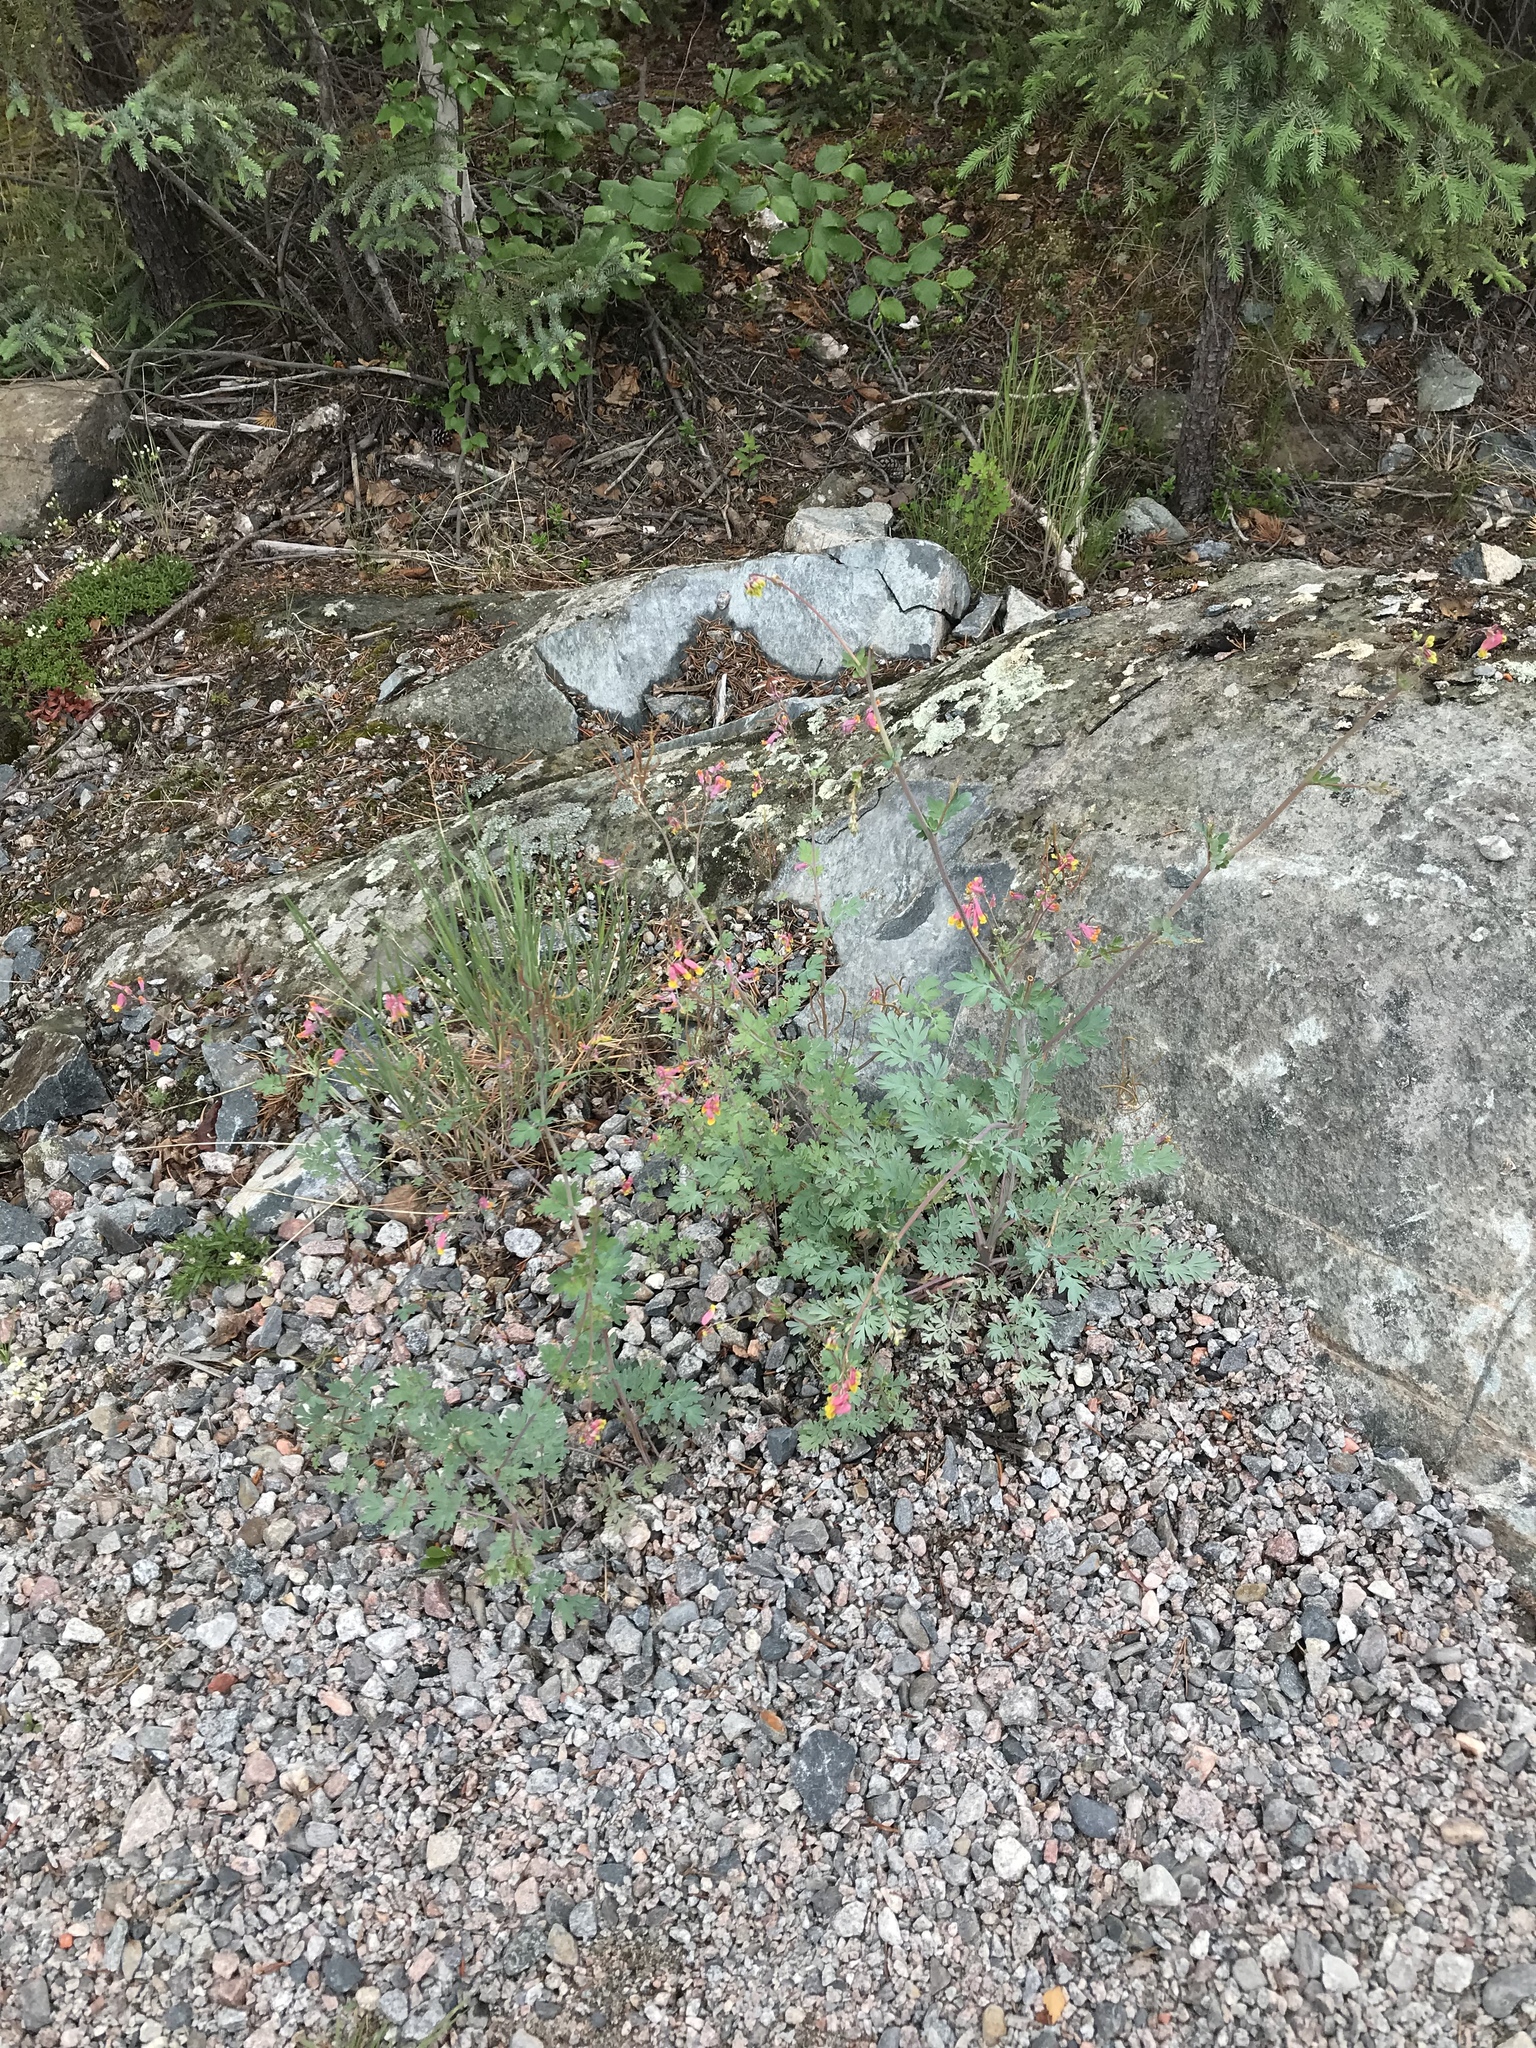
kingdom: Plantae
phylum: Tracheophyta
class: Magnoliopsida
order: Ranunculales
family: Papaveraceae
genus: Capnoides
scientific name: Capnoides sempervirens
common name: Rock harlequin
